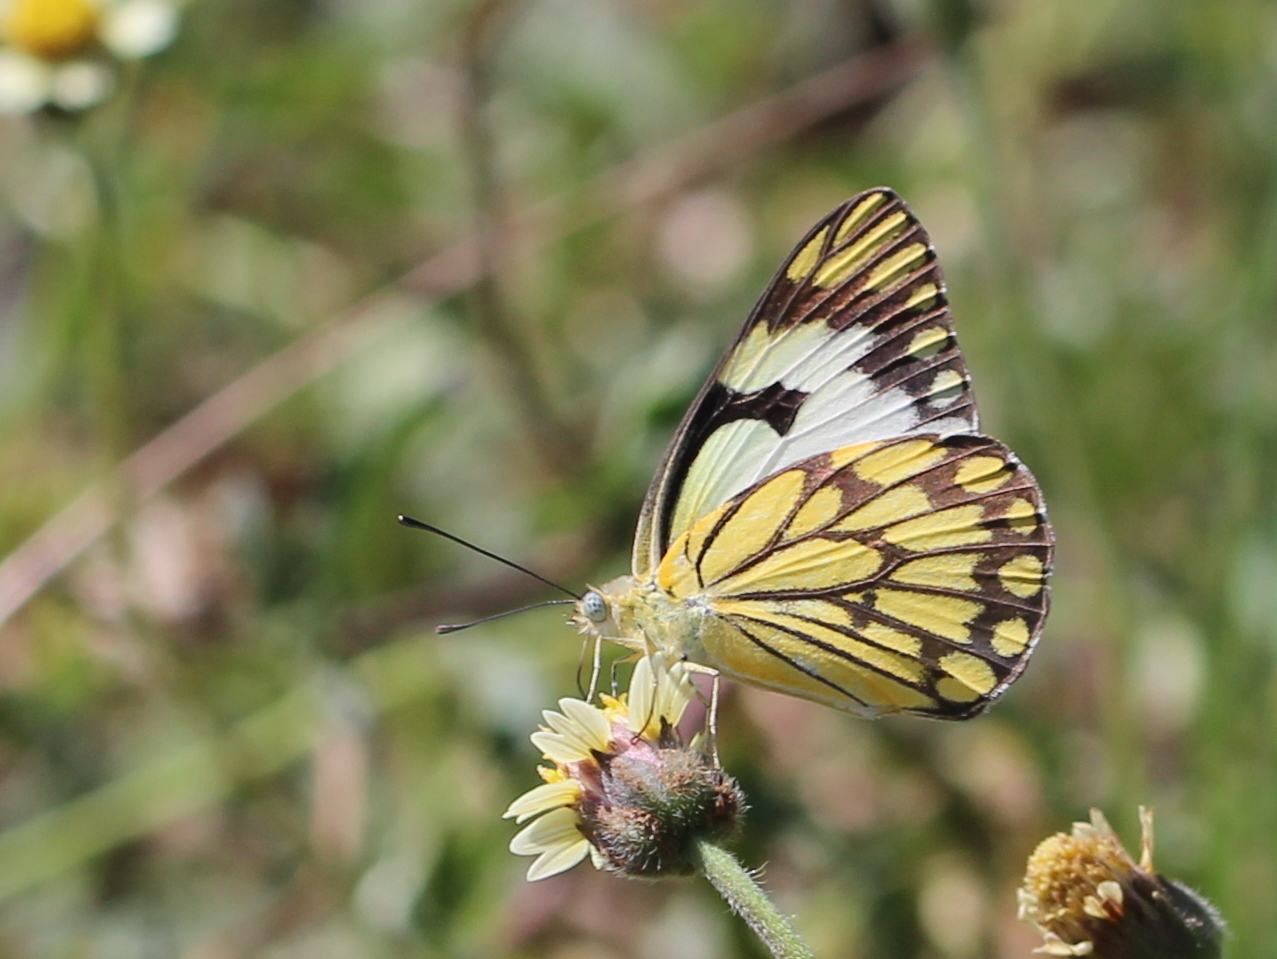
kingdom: Animalia
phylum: Arthropoda
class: Insecta
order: Lepidoptera
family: Pieridae
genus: Belenois
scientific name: Belenois aurota
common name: Brown-veined white
